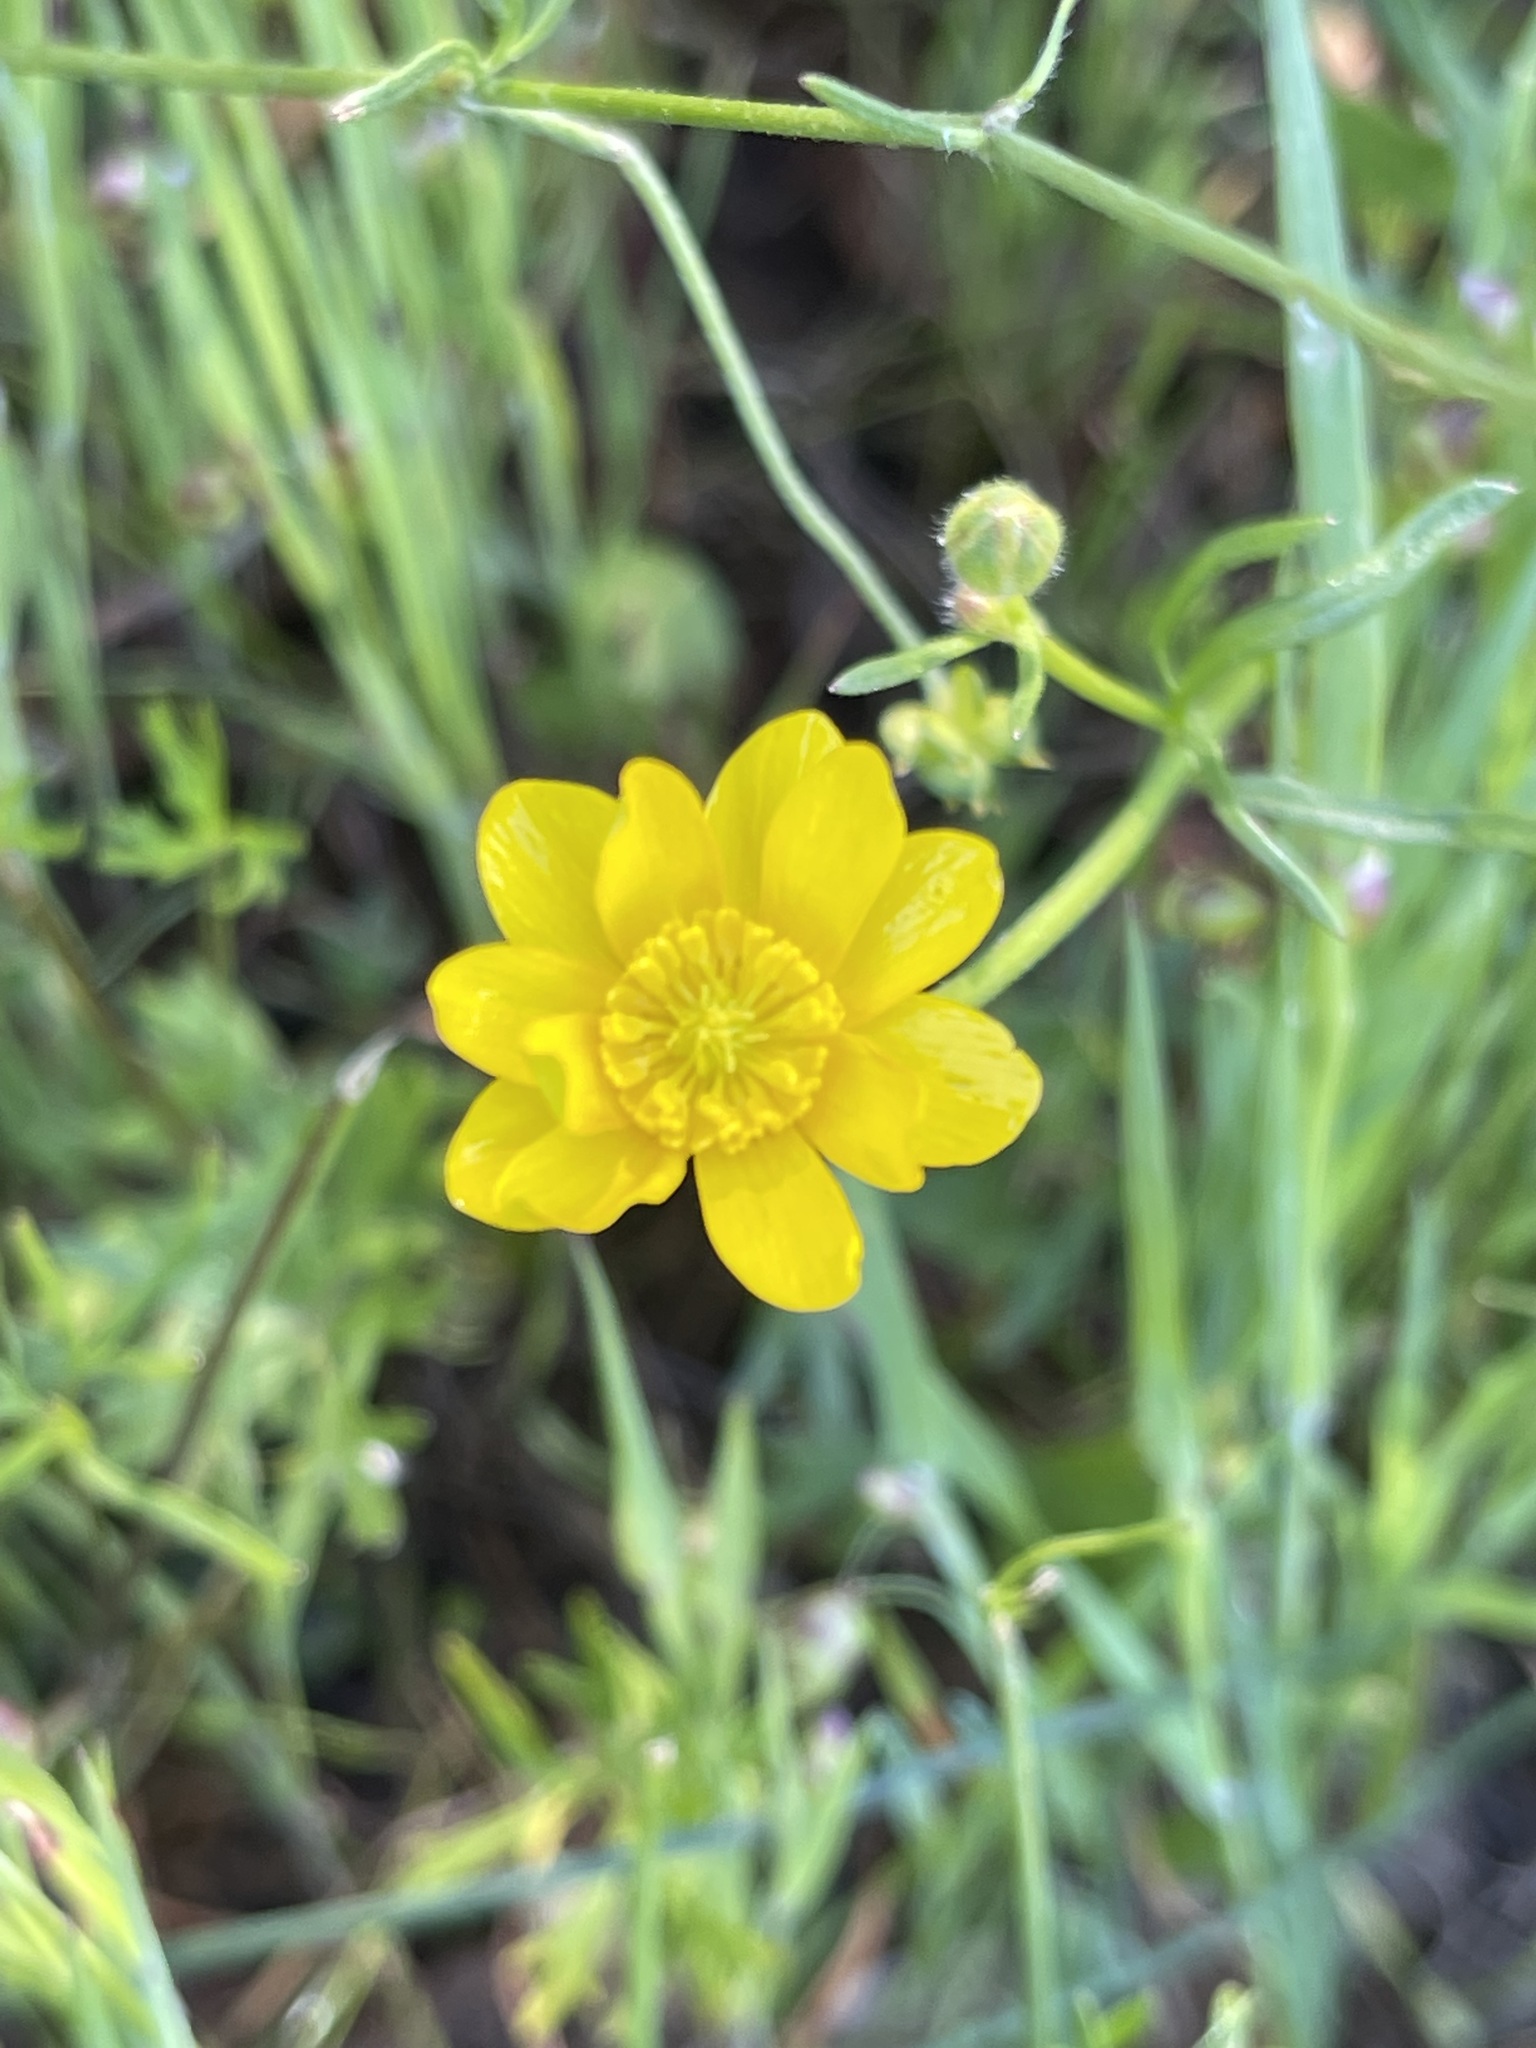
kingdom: Plantae
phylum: Tracheophyta
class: Magnoliopsida
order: Ranunculales
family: Ranunculaceae
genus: Ranunculus
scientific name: Ranunculus californicus
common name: California buttercup
